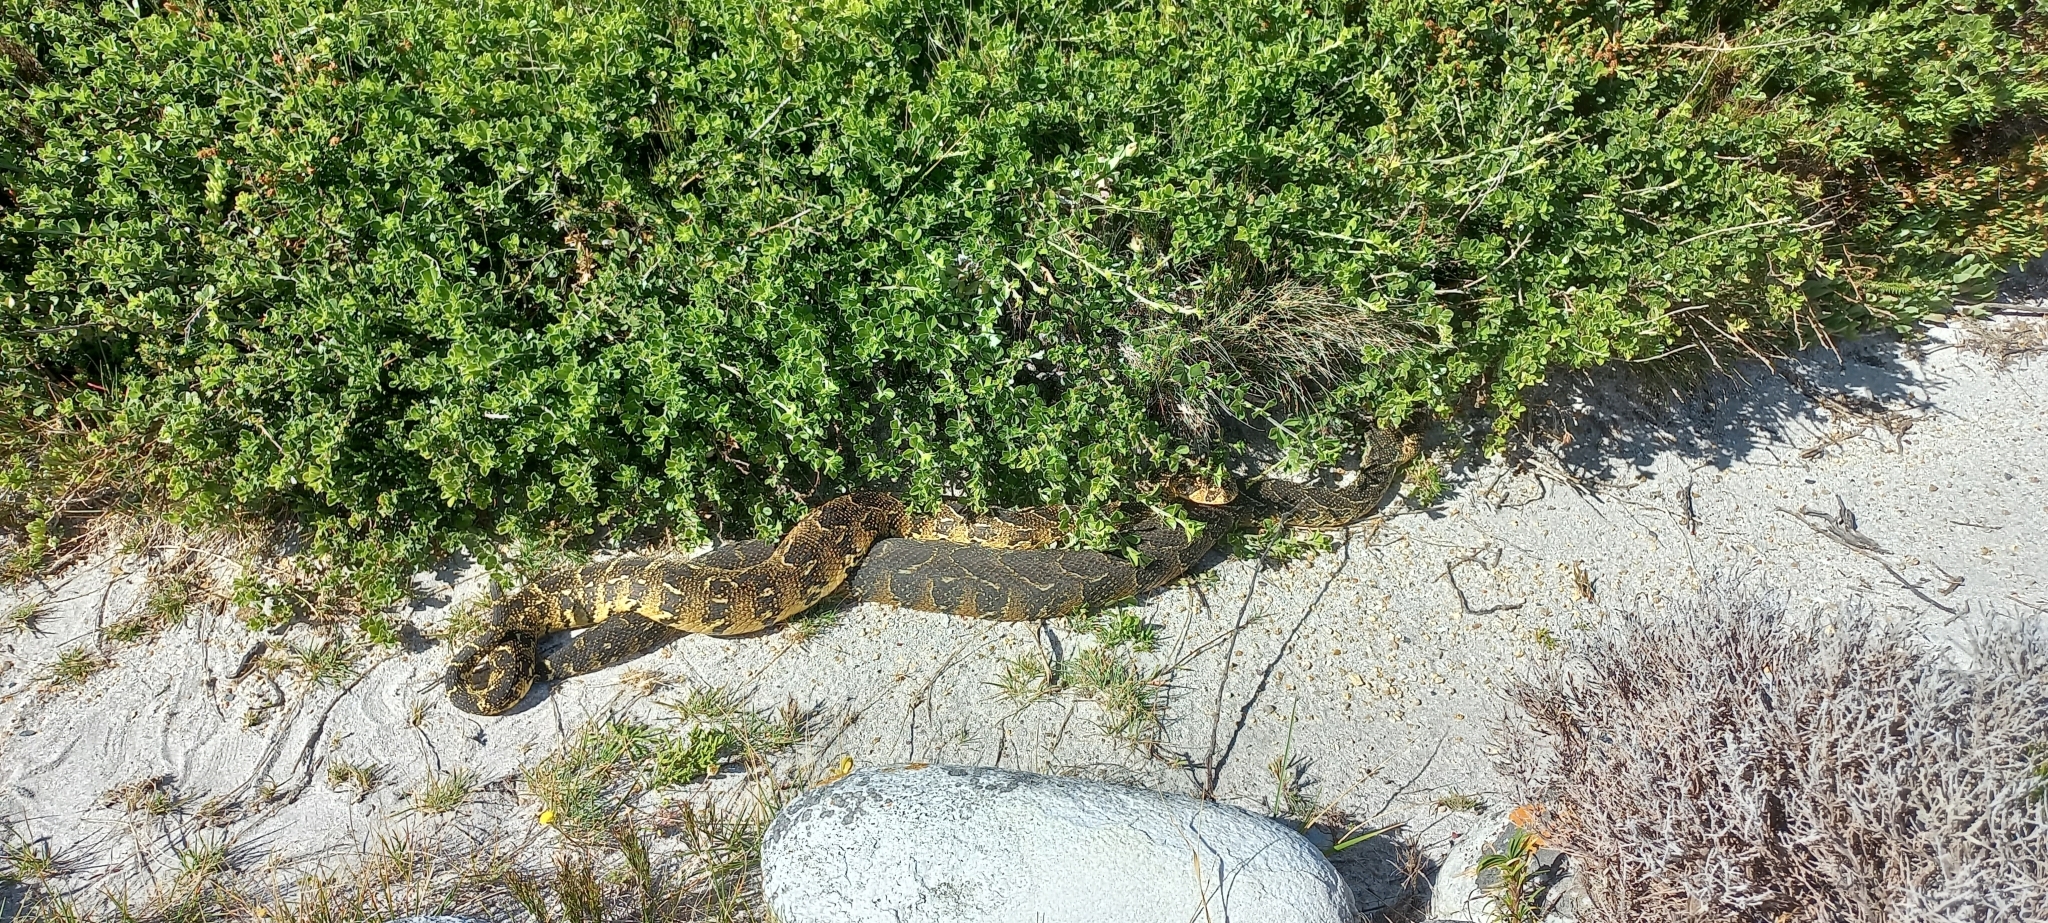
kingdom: Animalia
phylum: Chordata
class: Squamata
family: Viperidae
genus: Bitis
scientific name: Bitis arietans
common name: Puff adder
